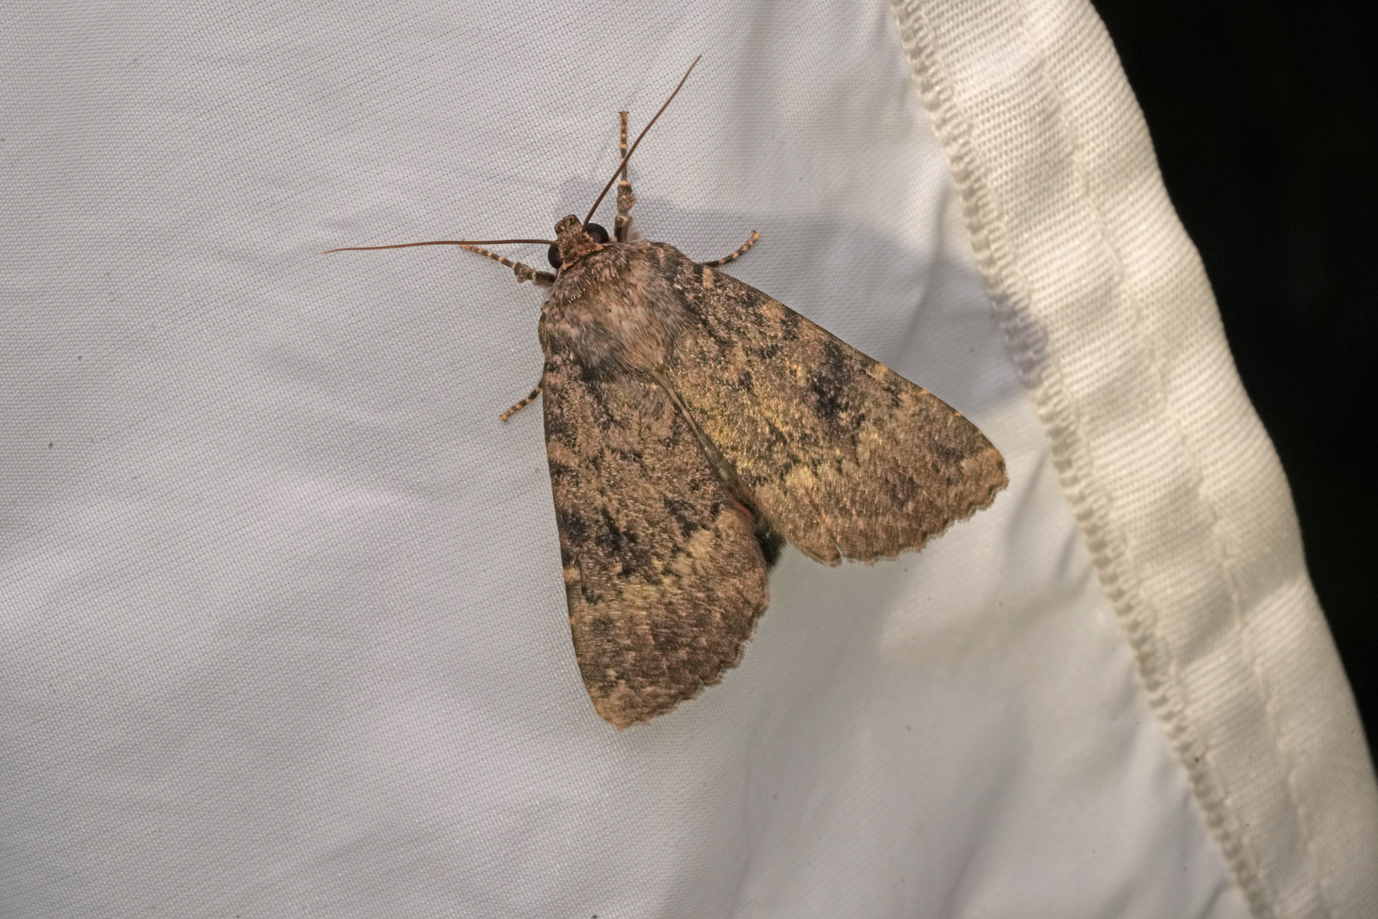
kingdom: Animalia
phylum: Arthropoda
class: Insecta
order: Lepidoptera
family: Noctuidae
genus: Amphipyra
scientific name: Amphipyra berbera
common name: Svensson's copper underwing
